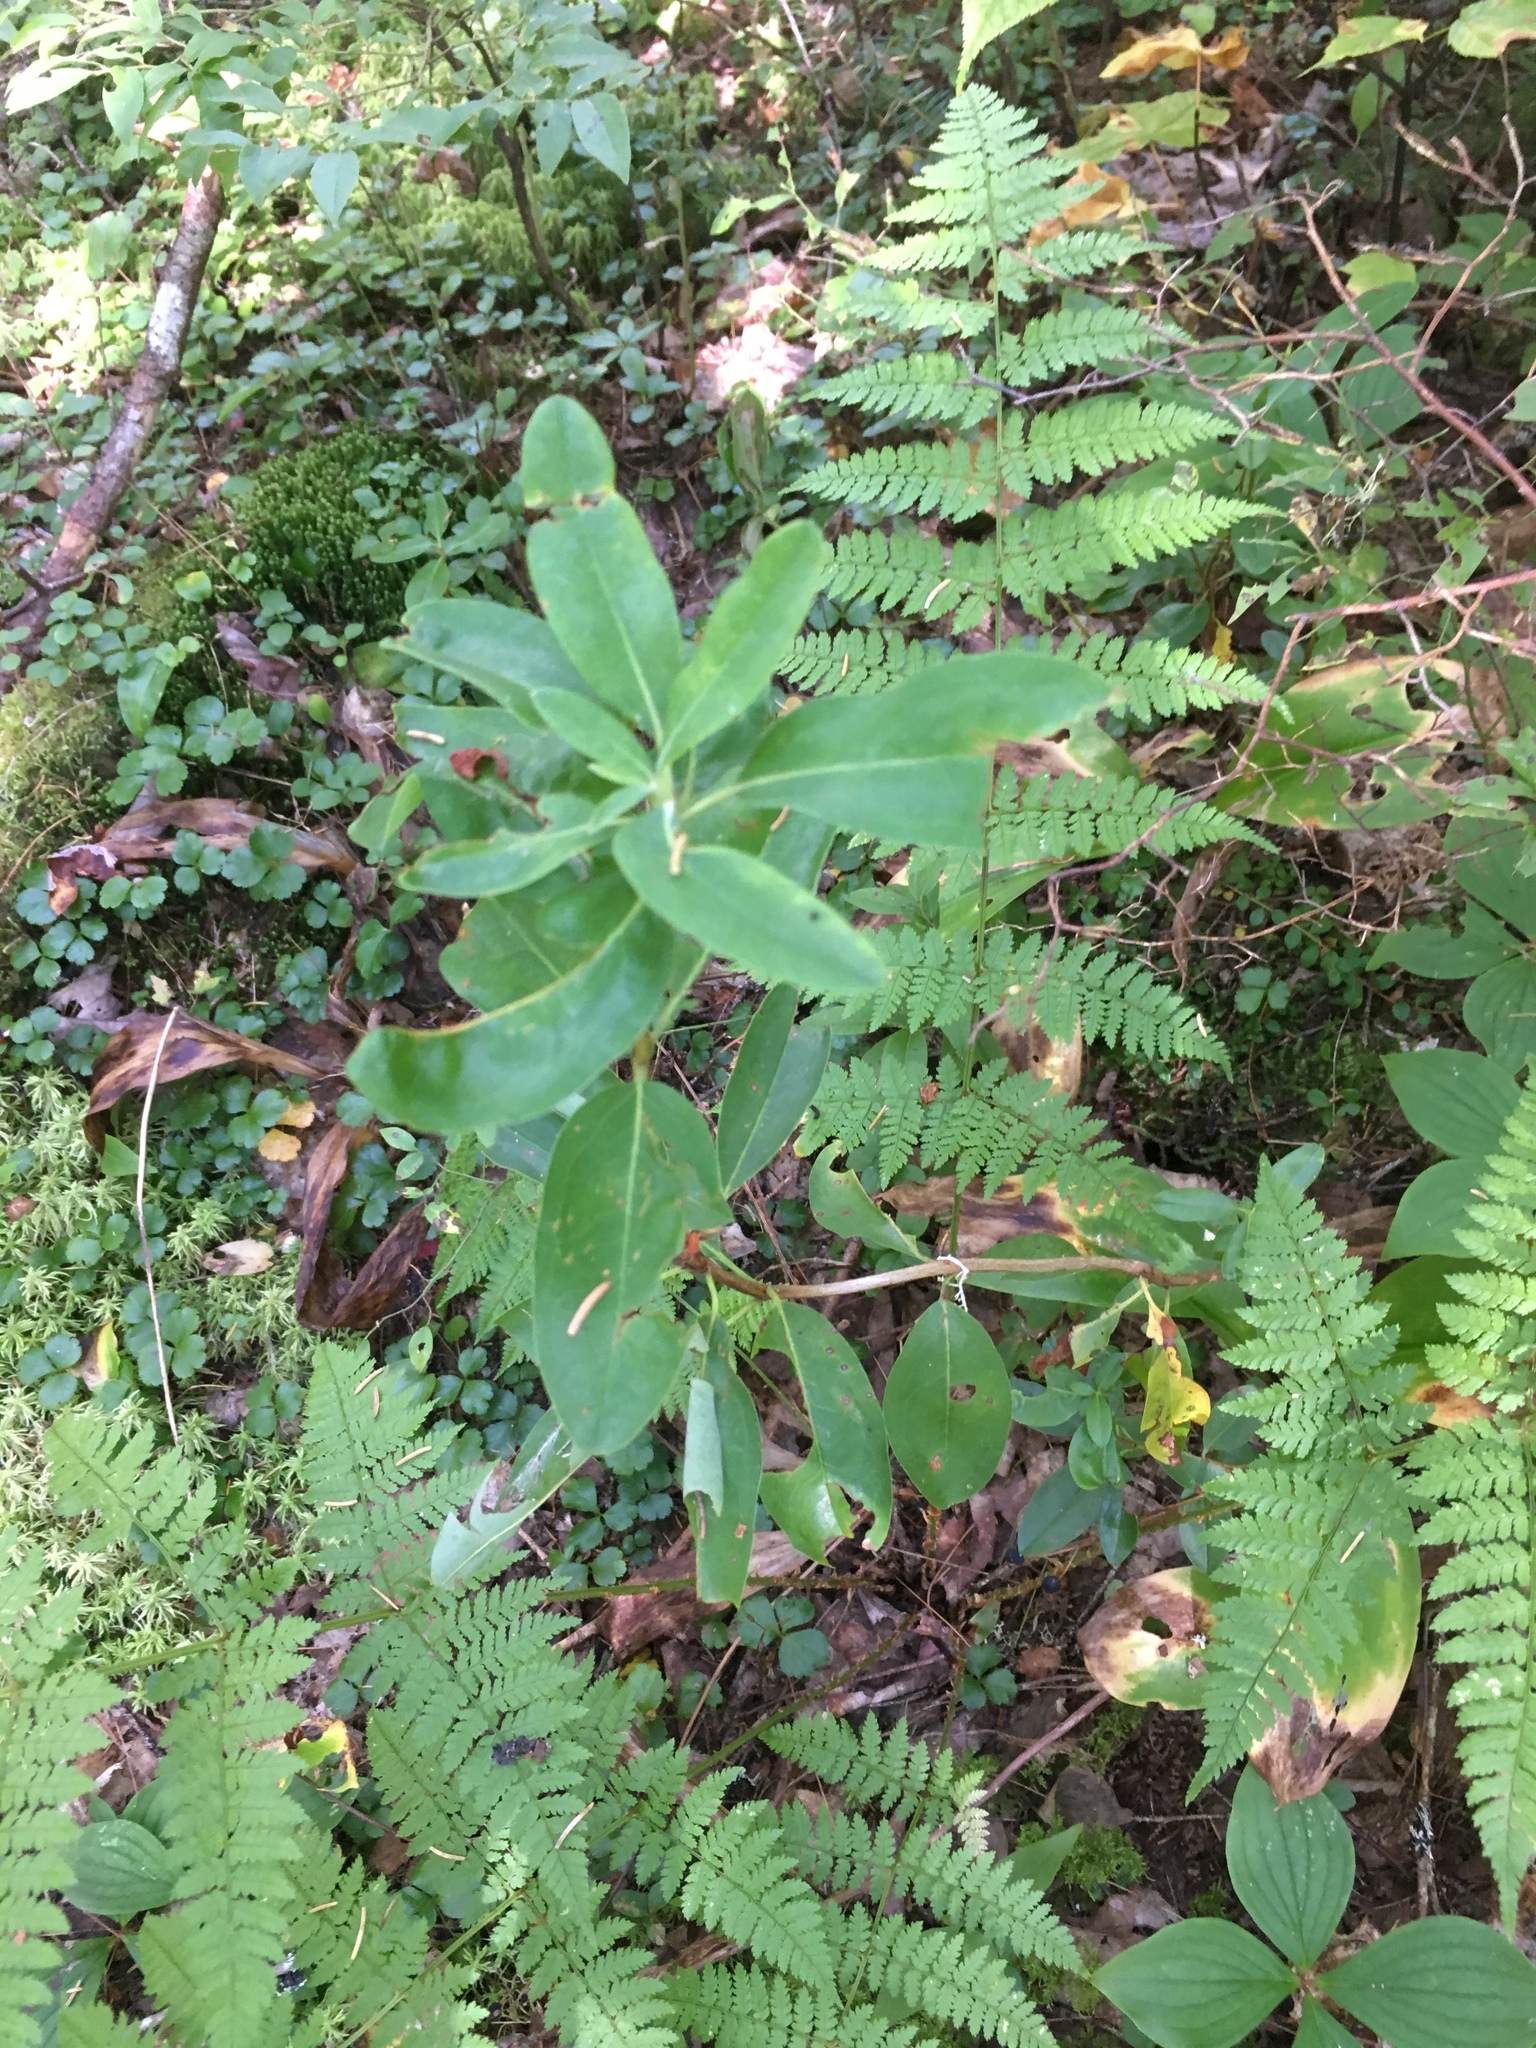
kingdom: Plantae
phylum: Tracheophyta
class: Magnoliopsida
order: Ericales
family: Ericaceae
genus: Kalmia
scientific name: Kalmia angustifolia
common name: Sheep-laurel
